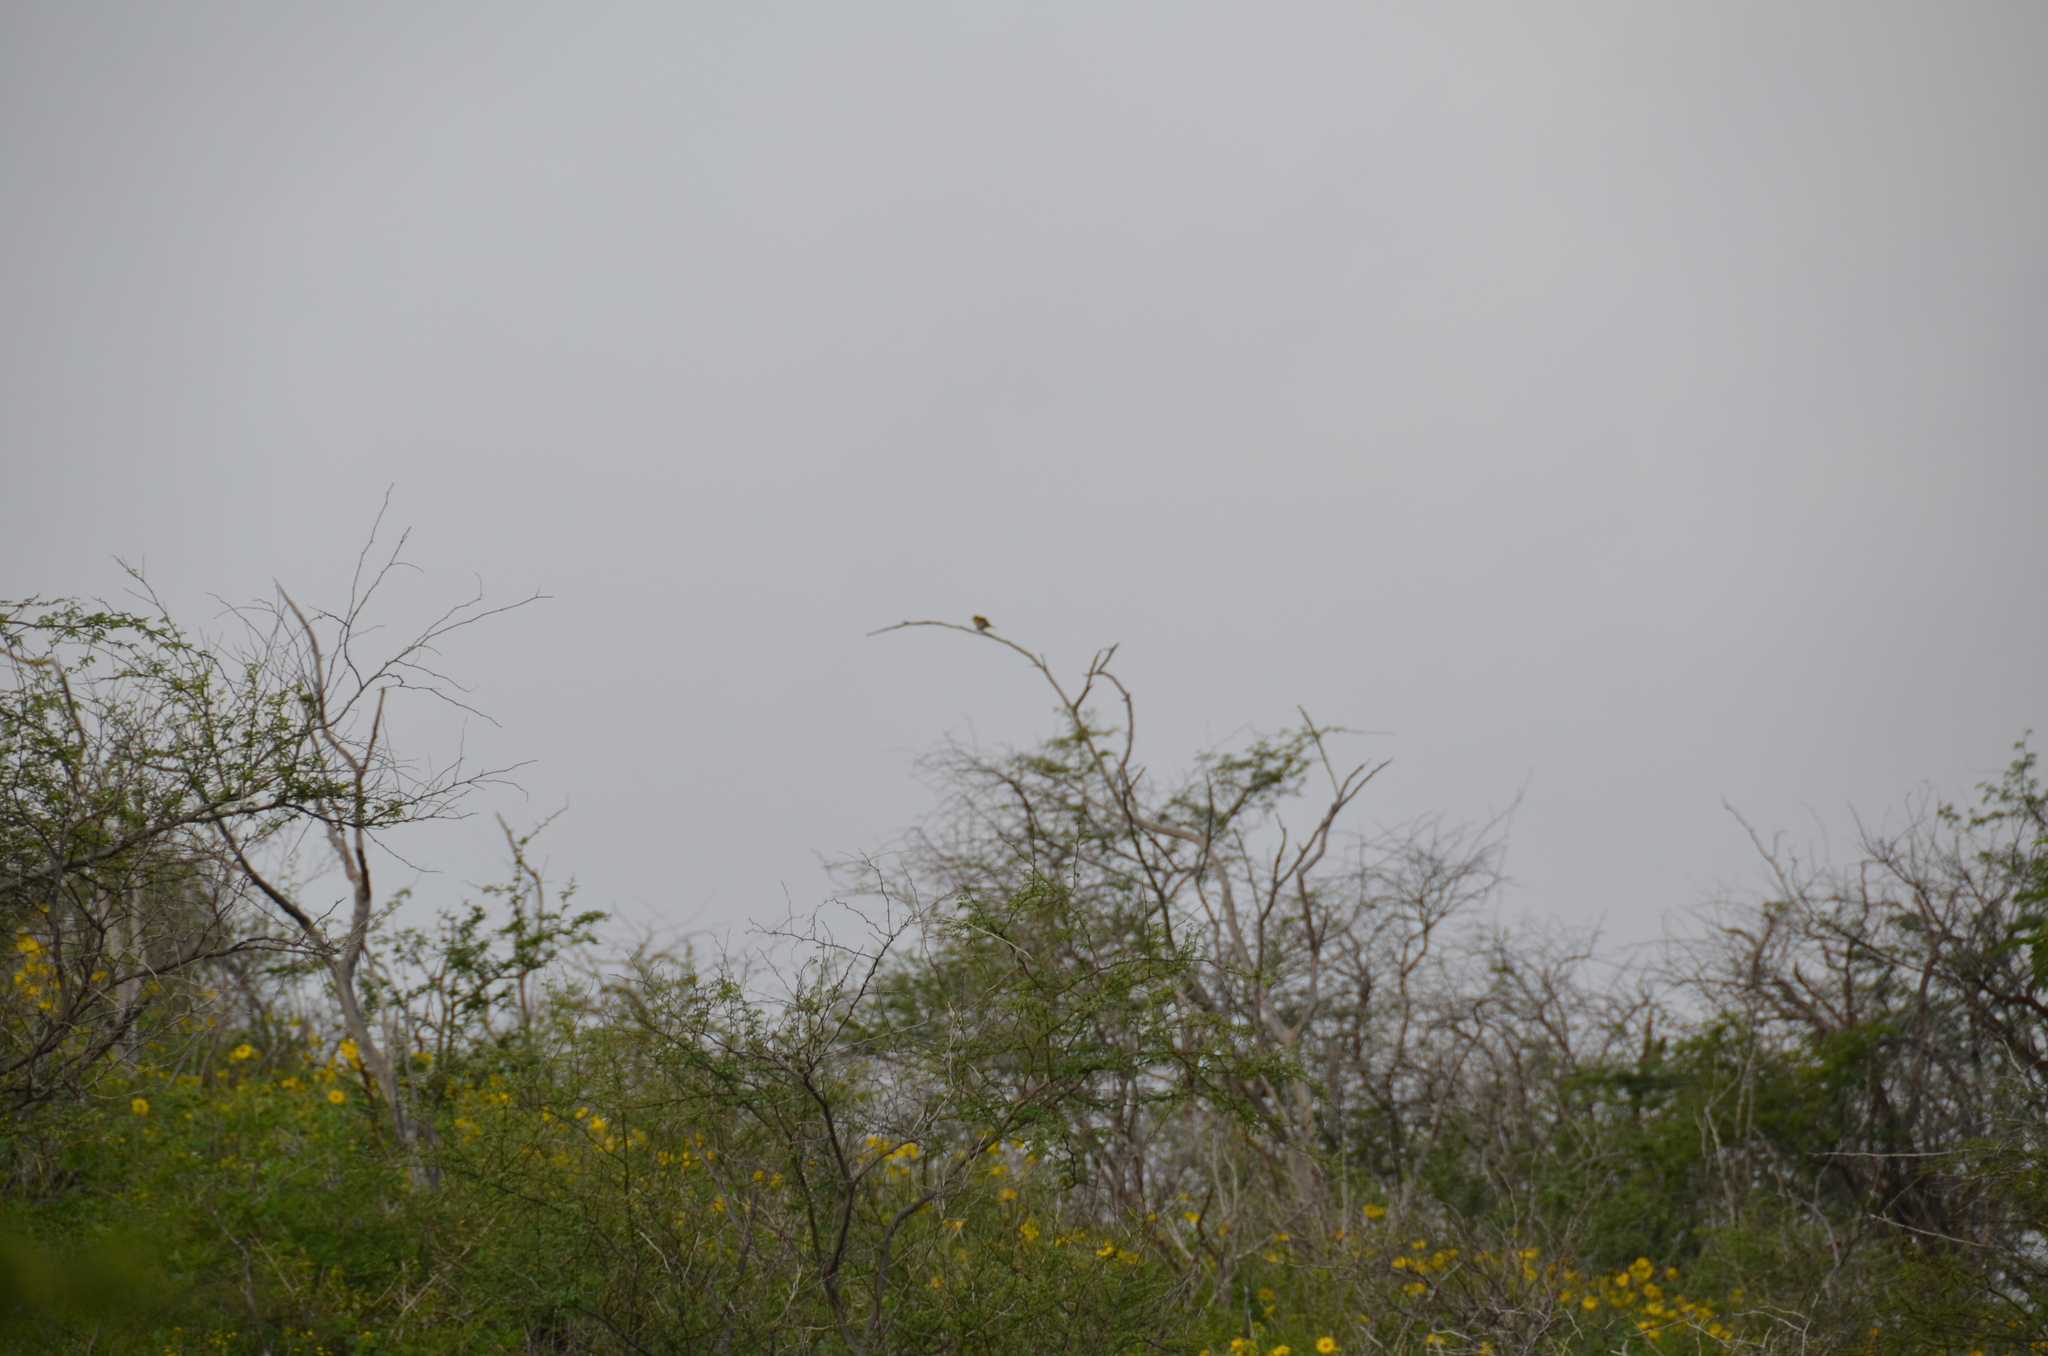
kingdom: Animalia
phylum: Chordata
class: Aves
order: Passeriformes
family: Zosteropidae
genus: Zosterops
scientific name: Zosterops japonicus
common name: Japanese white-eye
